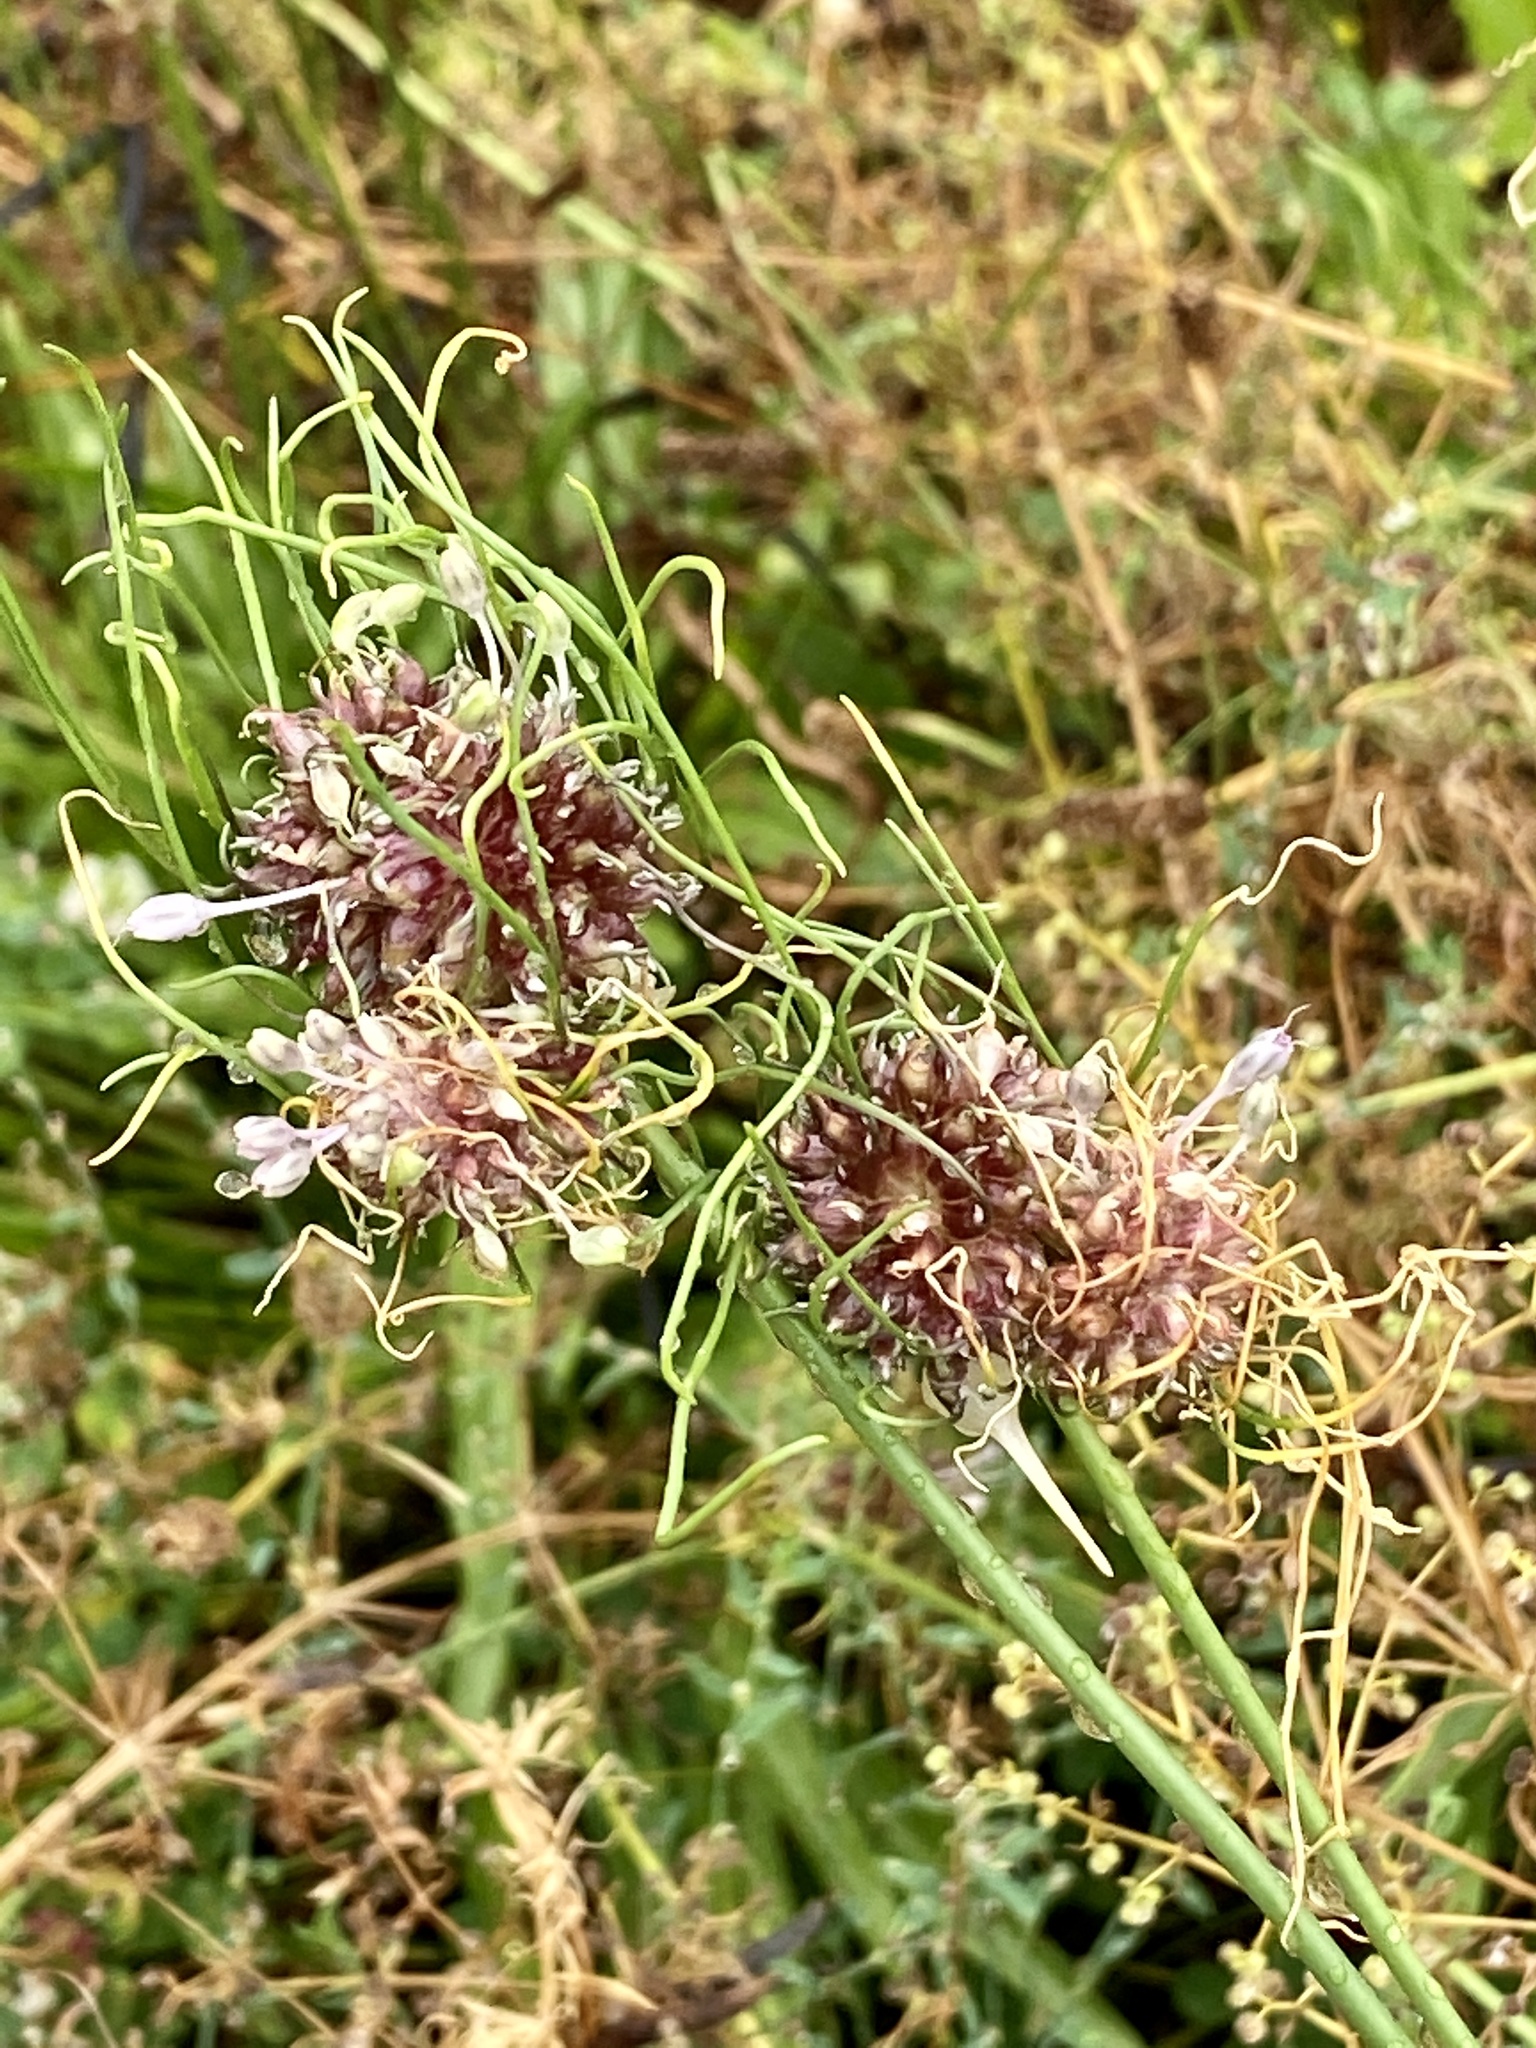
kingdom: Plantae
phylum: Tracheophyta
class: Liliopsida
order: Asparagales
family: Amaryllidaceae
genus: Allium
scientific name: Allium vineale
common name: Crow garlic
